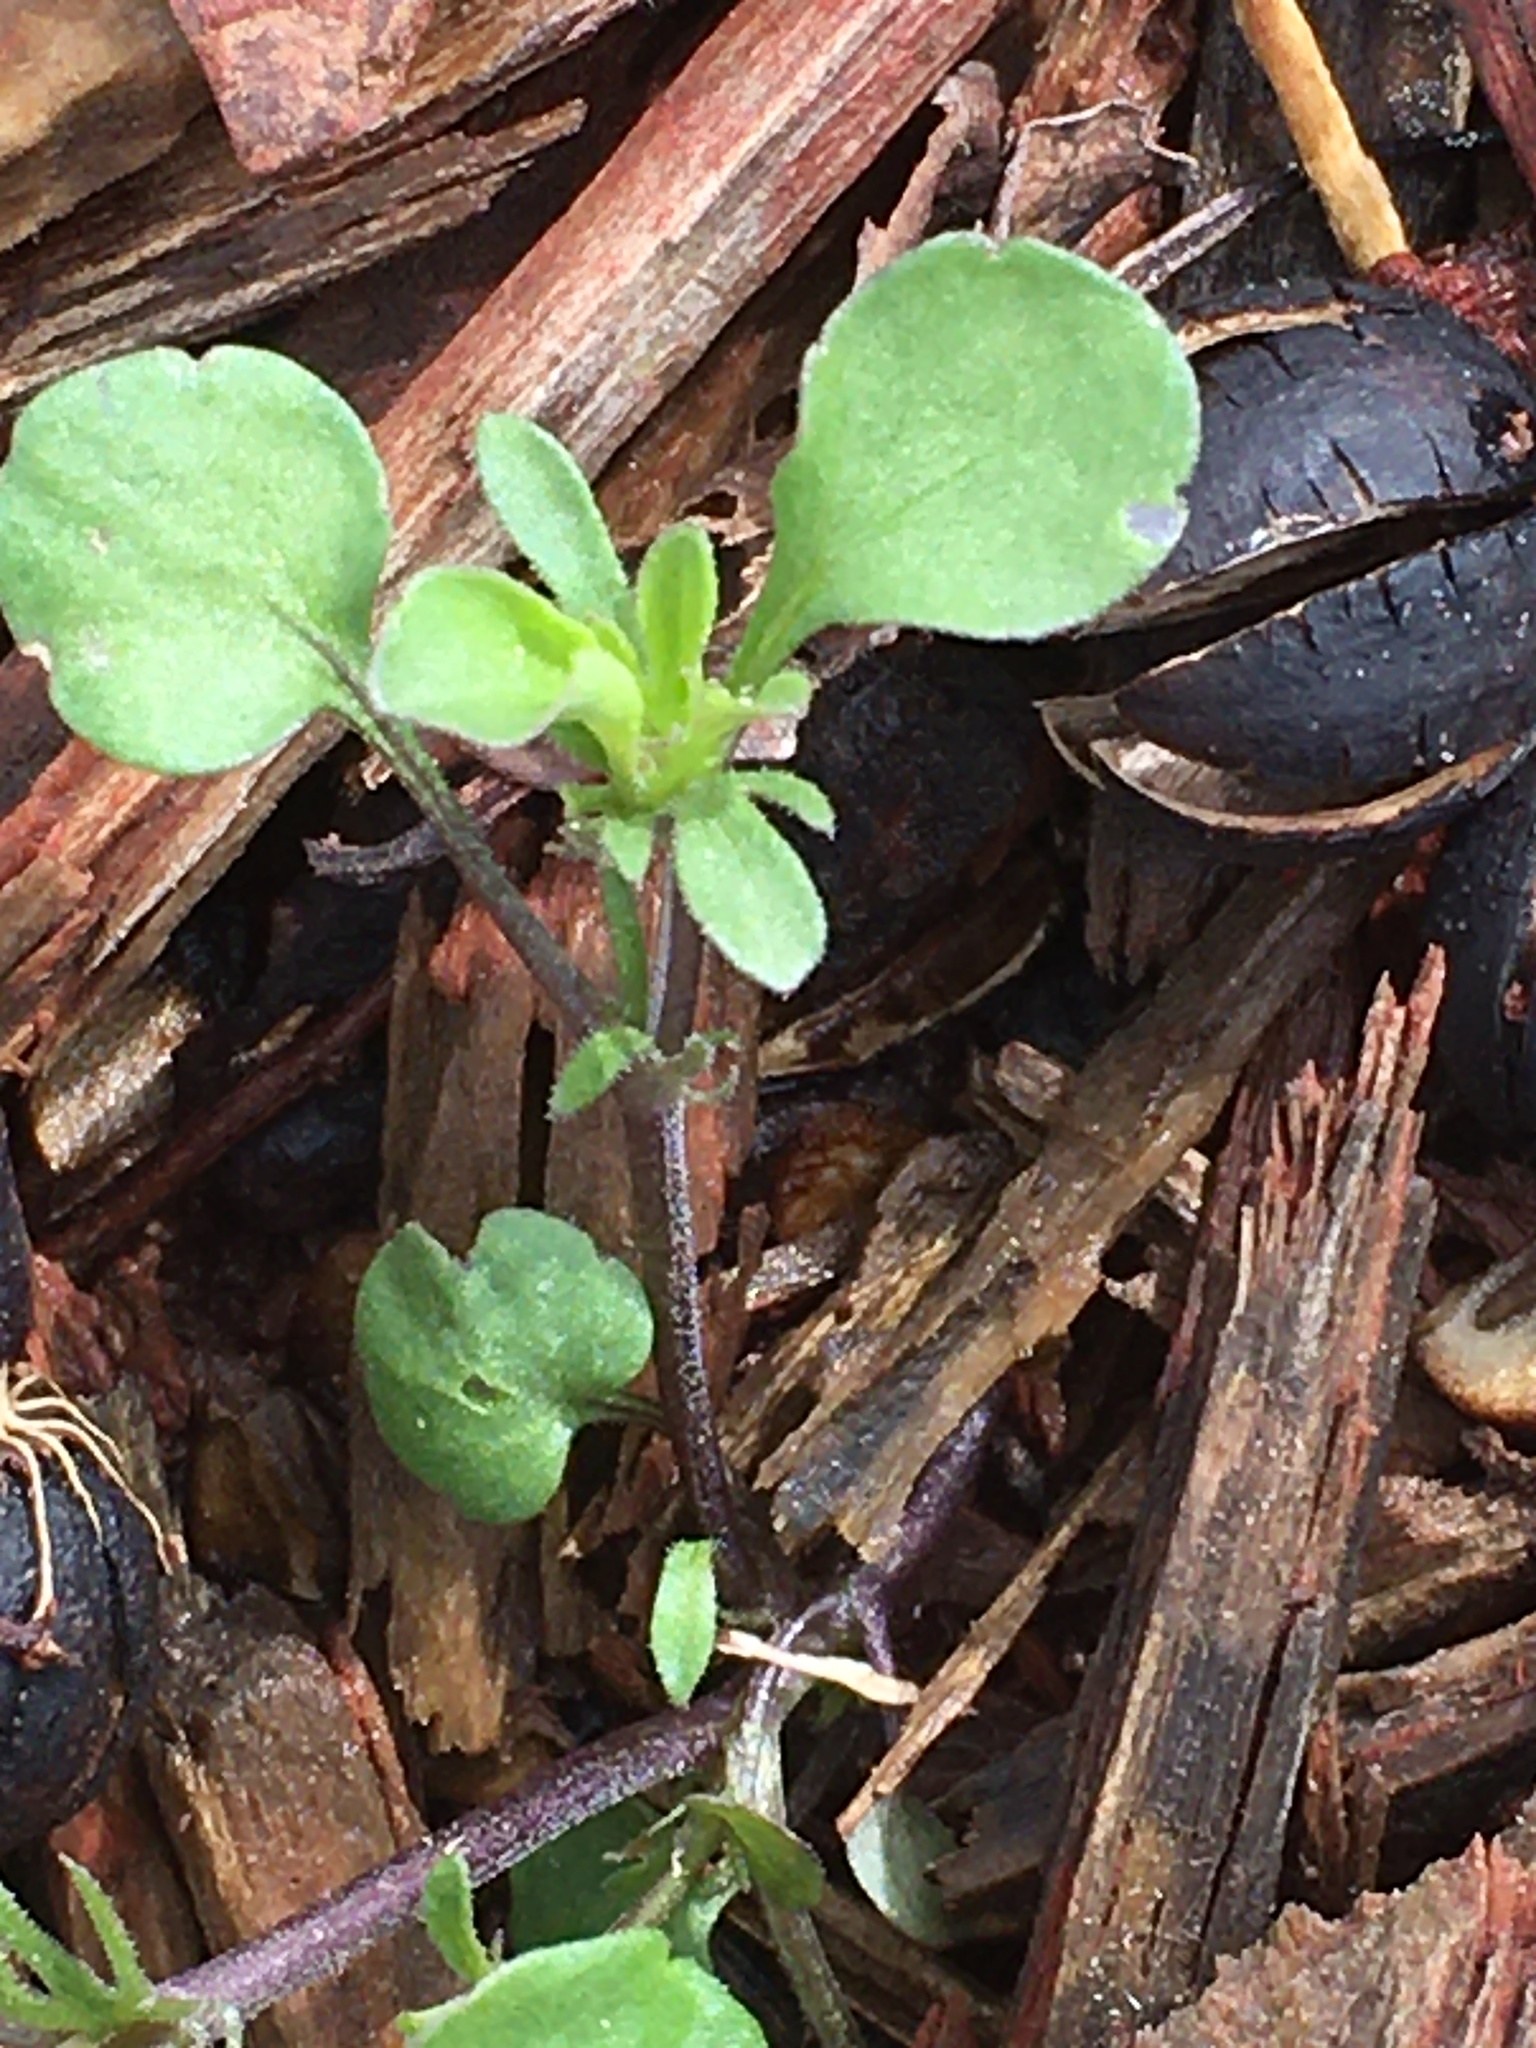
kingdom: Plantae
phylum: Tracheophyta
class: Magnoliopsida
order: Malpighiales
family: Violaceae
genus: Viola
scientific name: Viola rafinesquei
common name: American field pansy
